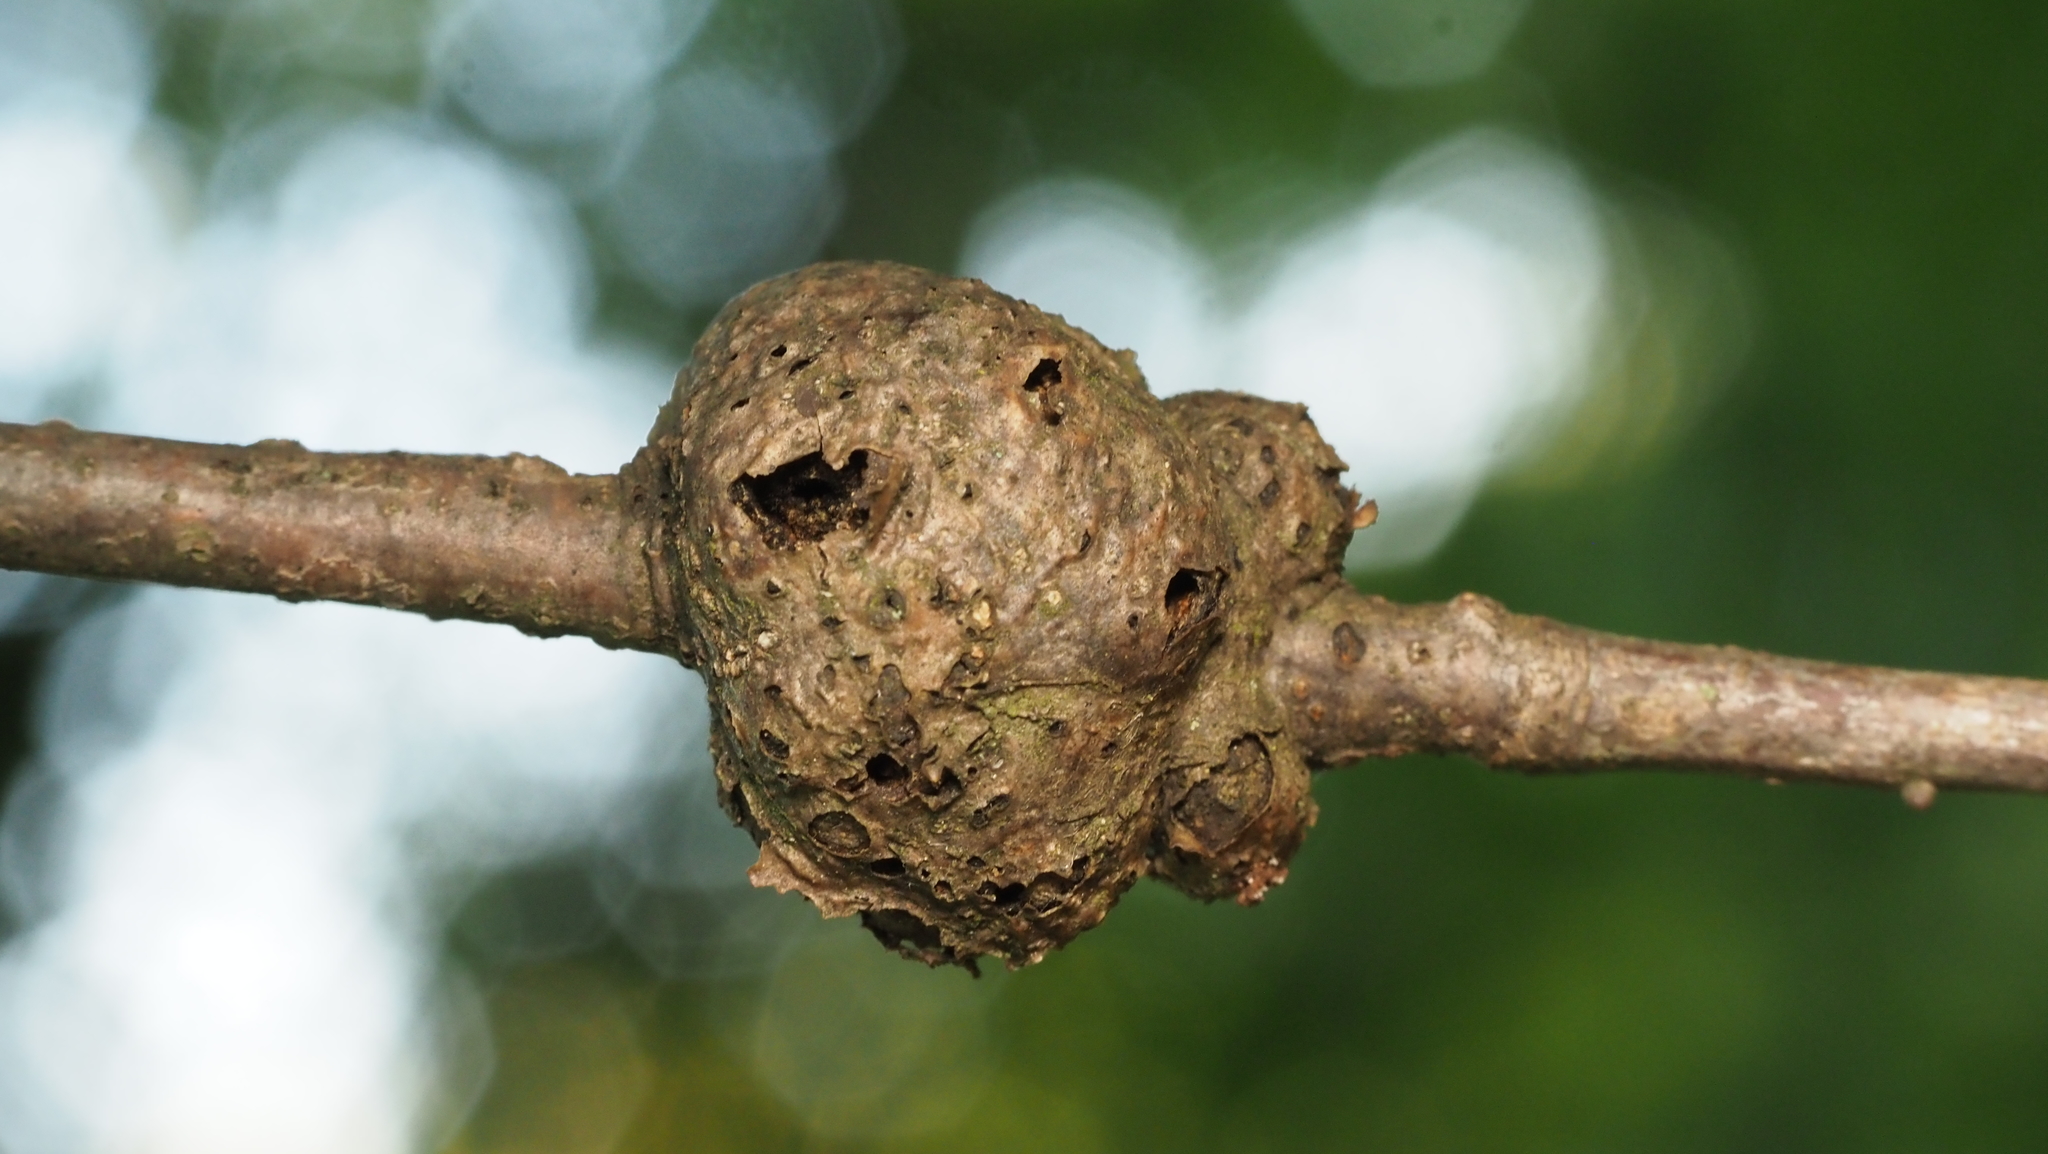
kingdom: Animalia
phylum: Arthropoda
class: Insecta
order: Hymenoptera
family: Cynipidae
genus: Callirhytis
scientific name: Callirhytis
